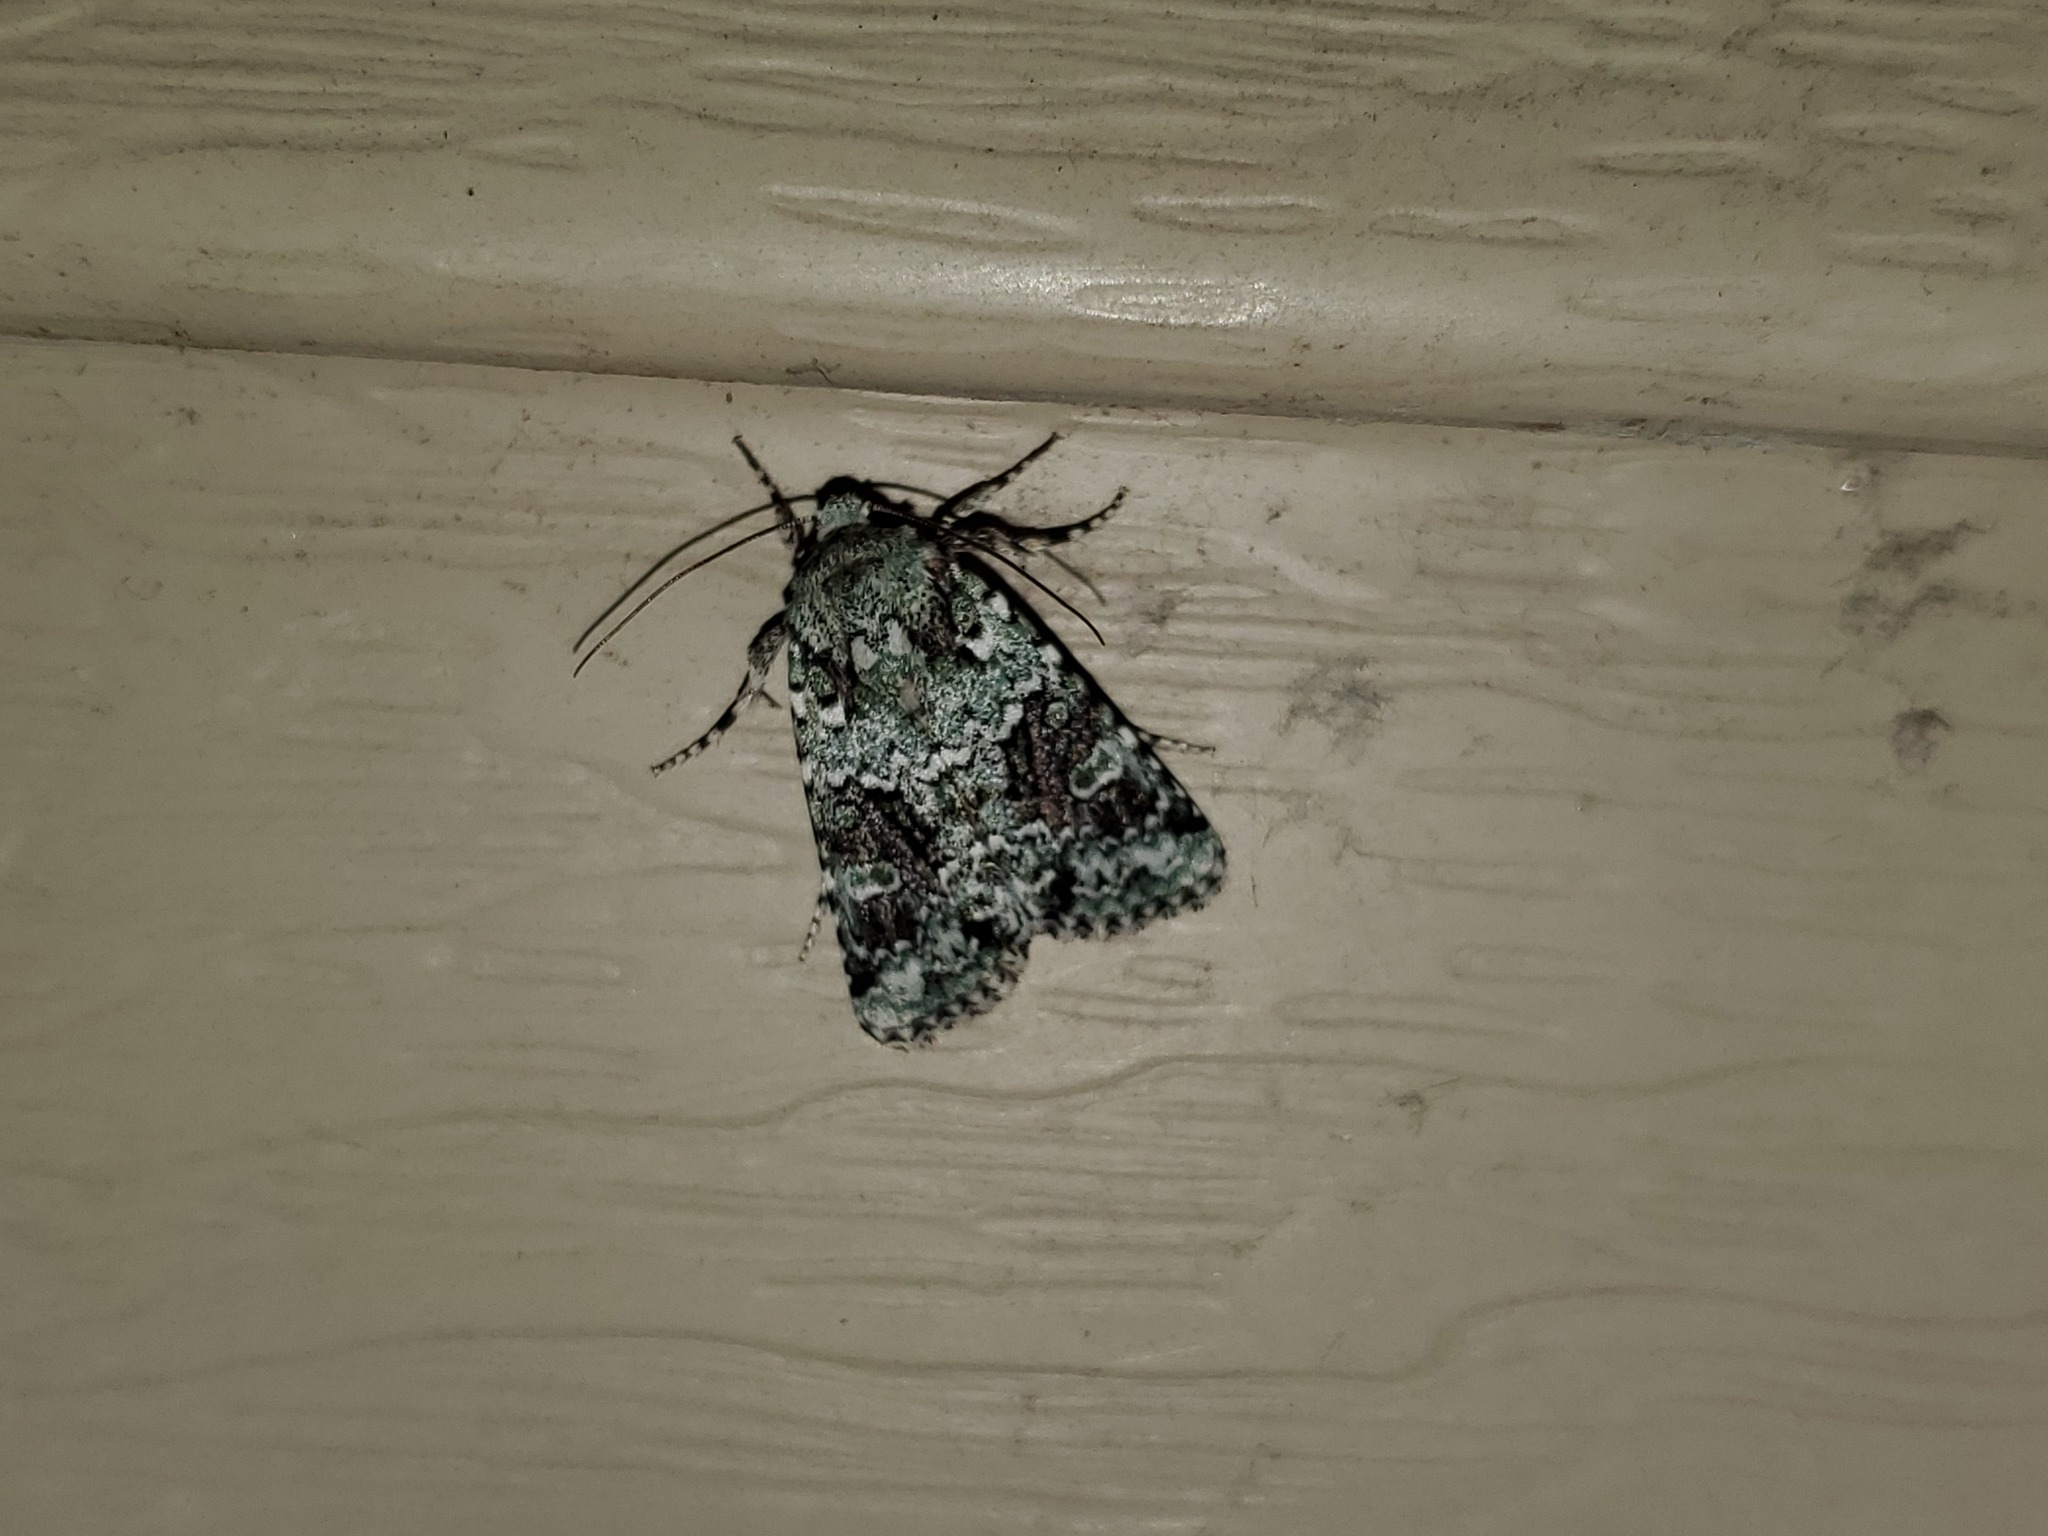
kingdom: Animalia
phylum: Arthropoda
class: Insecta
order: Lepidoptera
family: Noctuidae
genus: Lacinipolia
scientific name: Lacinipolia laudabilis
